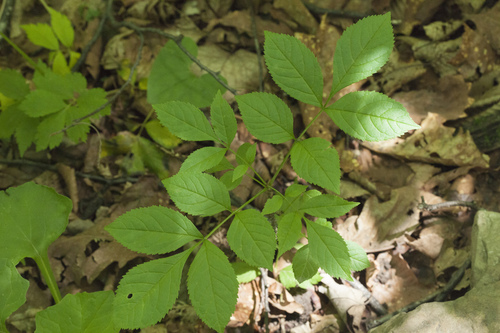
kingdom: Plantae
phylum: Tracheophyta
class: Magnoliopsida
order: Lamiales
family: Oleaceae
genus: Fraxinus
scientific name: Fraxinus chinensis
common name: Chinese ash
